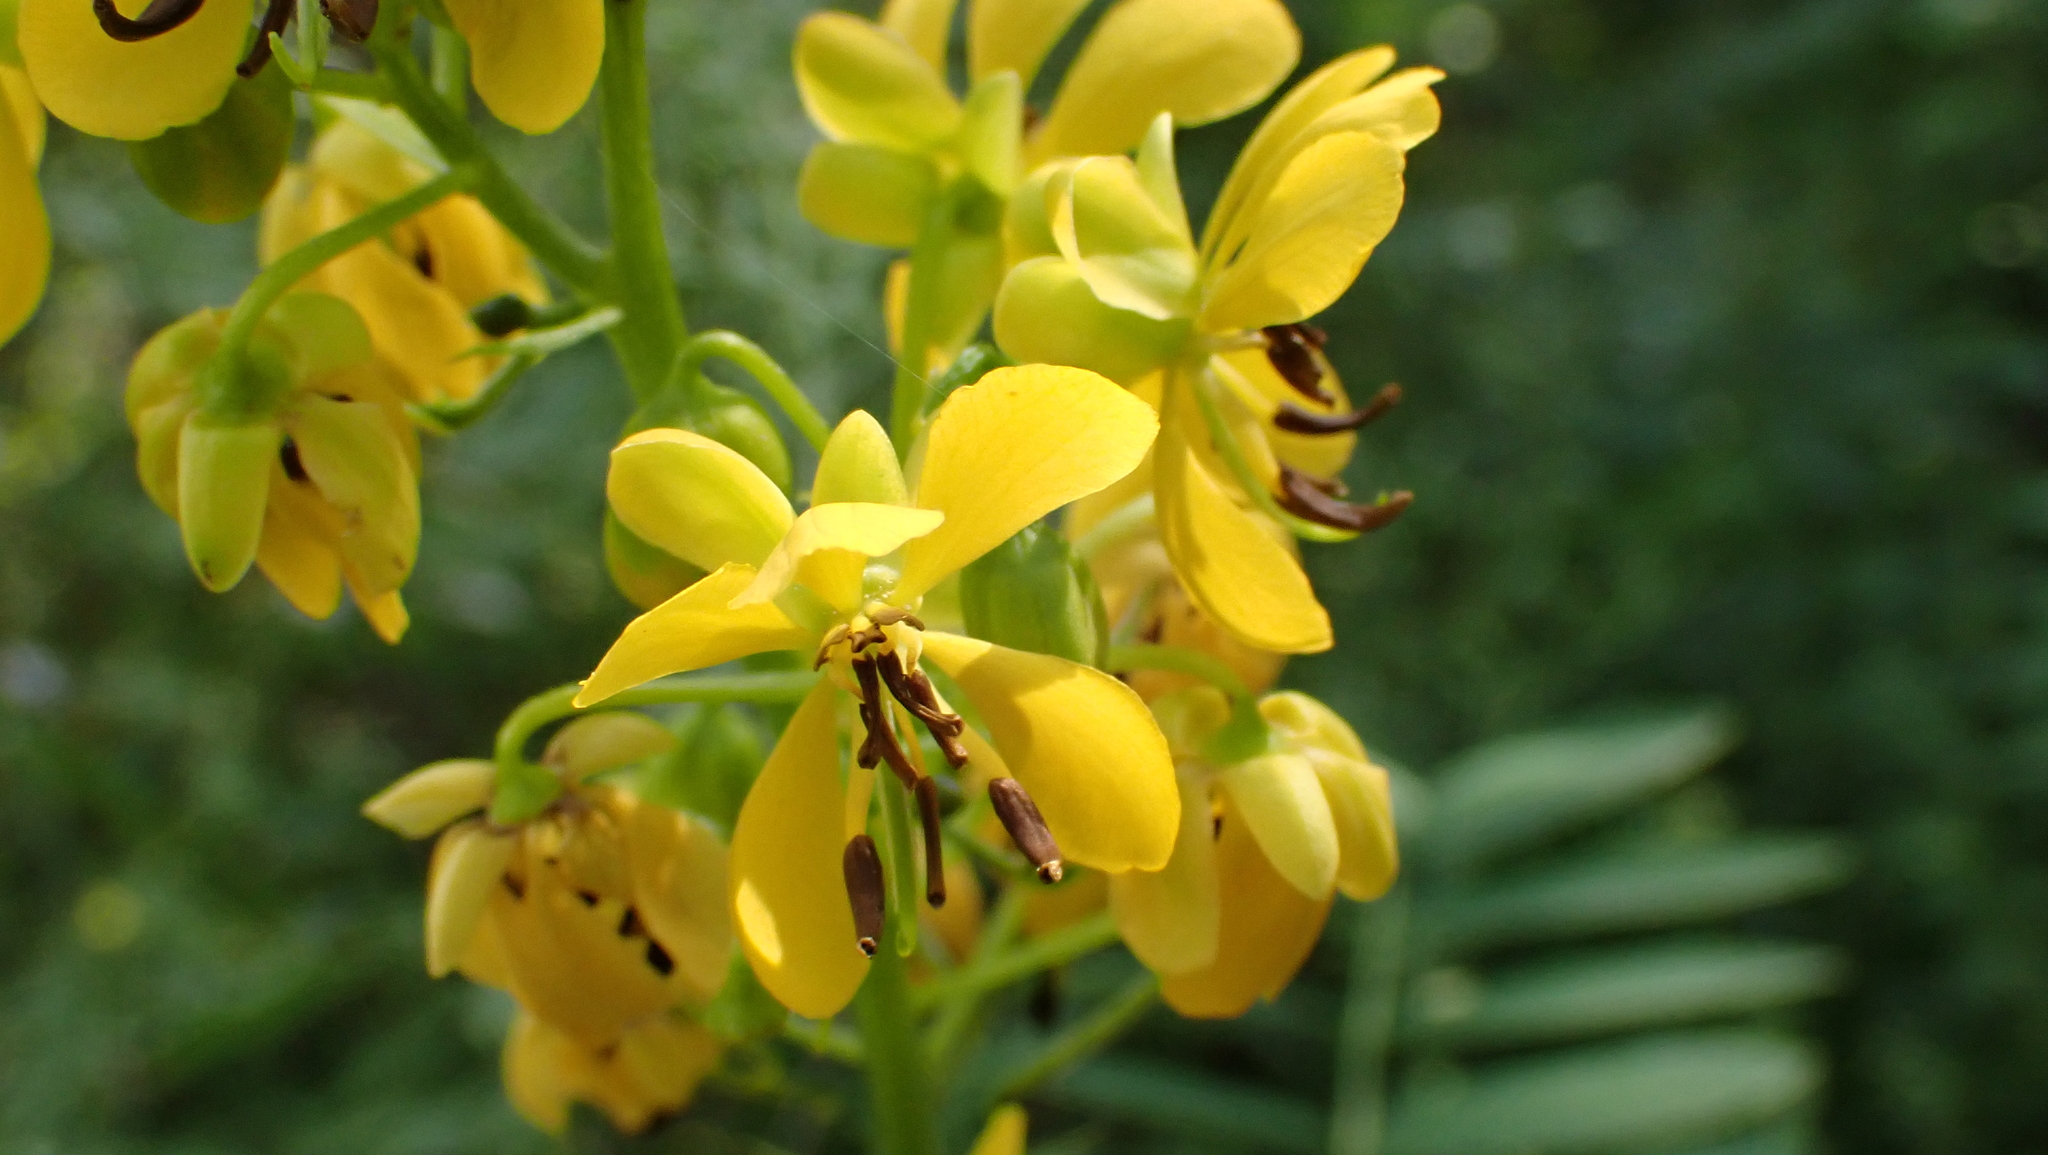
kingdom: Plantae
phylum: Tracheophyta
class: Magnoliopsida
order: Fabales
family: Fabaceae
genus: Senna
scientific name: Senna marilandica
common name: American senna
